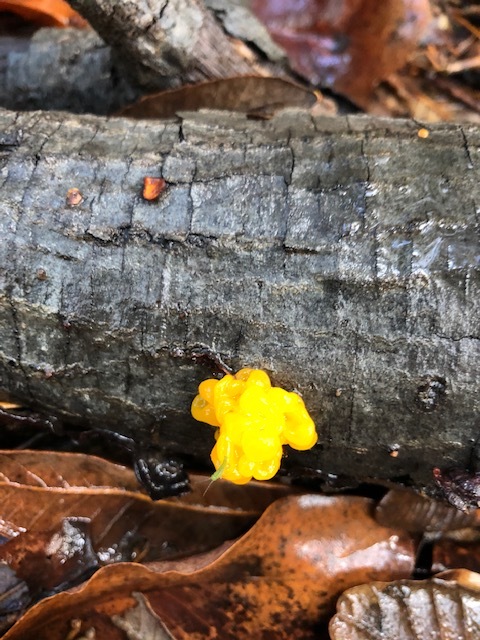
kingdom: Fungi
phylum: Basidiomycota
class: Tremellomycetes
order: Tremellales
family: Tremellaceae
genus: Tremella
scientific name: Tremella mesenterica
